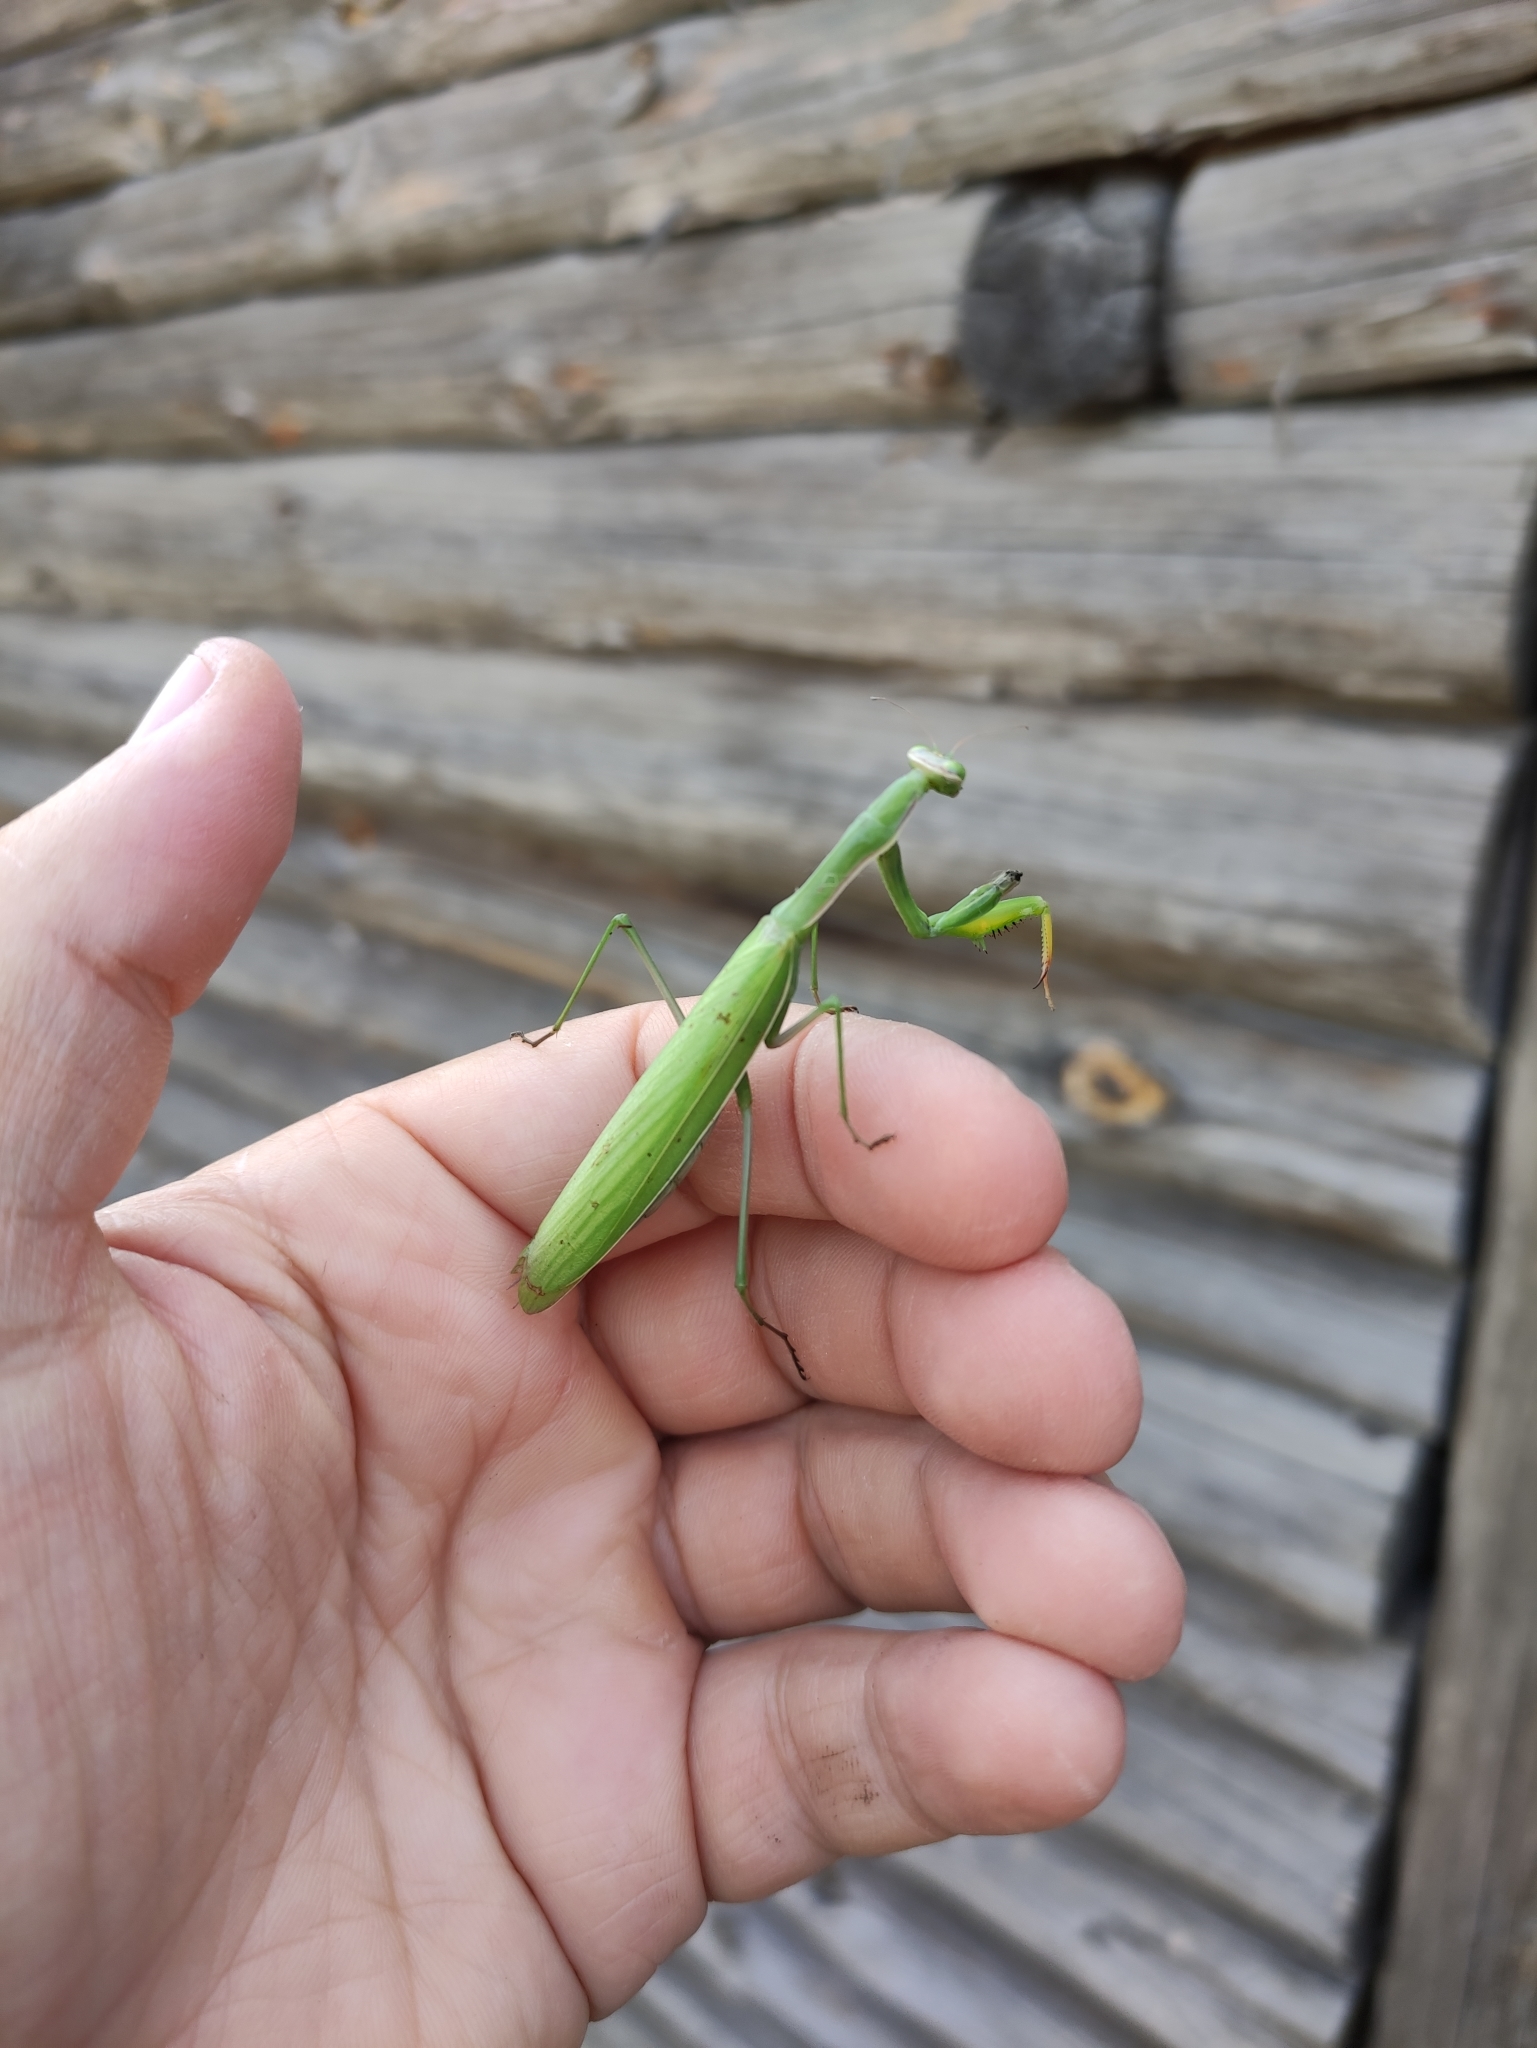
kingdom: Animalia
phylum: Arthropoda
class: Insecta
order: Mantodea
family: Mantidae
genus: Mantis
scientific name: Mantis religiosa
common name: Praying mantis
